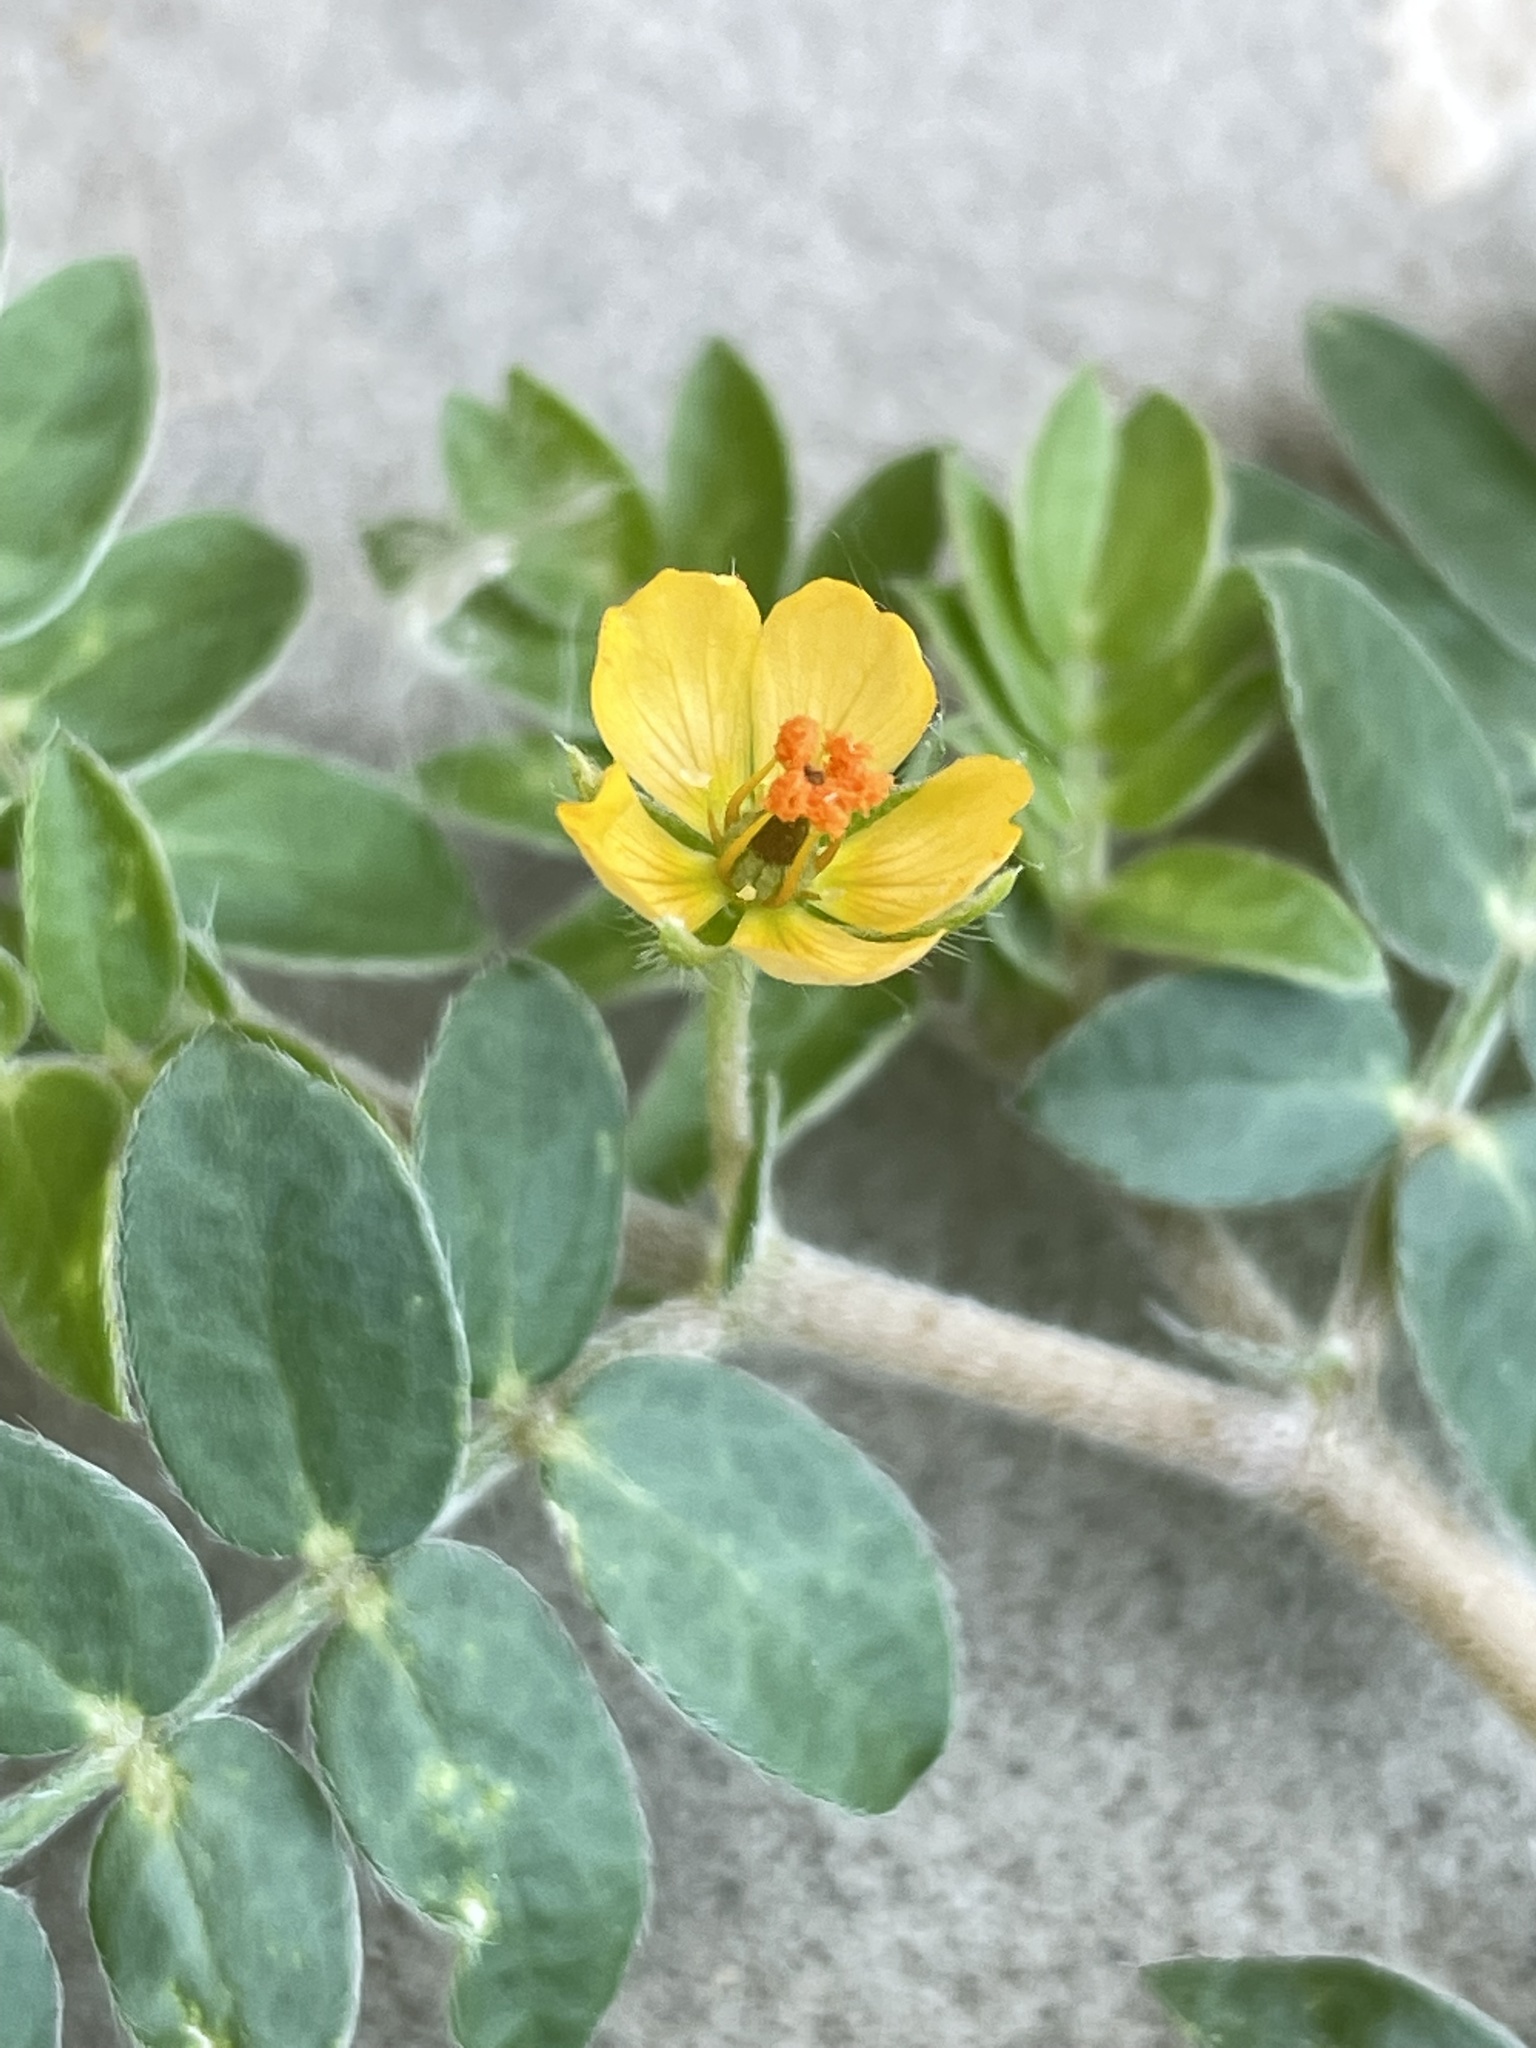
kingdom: Plantae
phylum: Tracheophyta
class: Magnoliopsida
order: Zygophyllales
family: Zygophyllaceae
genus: Kallstroemia
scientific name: Kallstroemia parviflora
